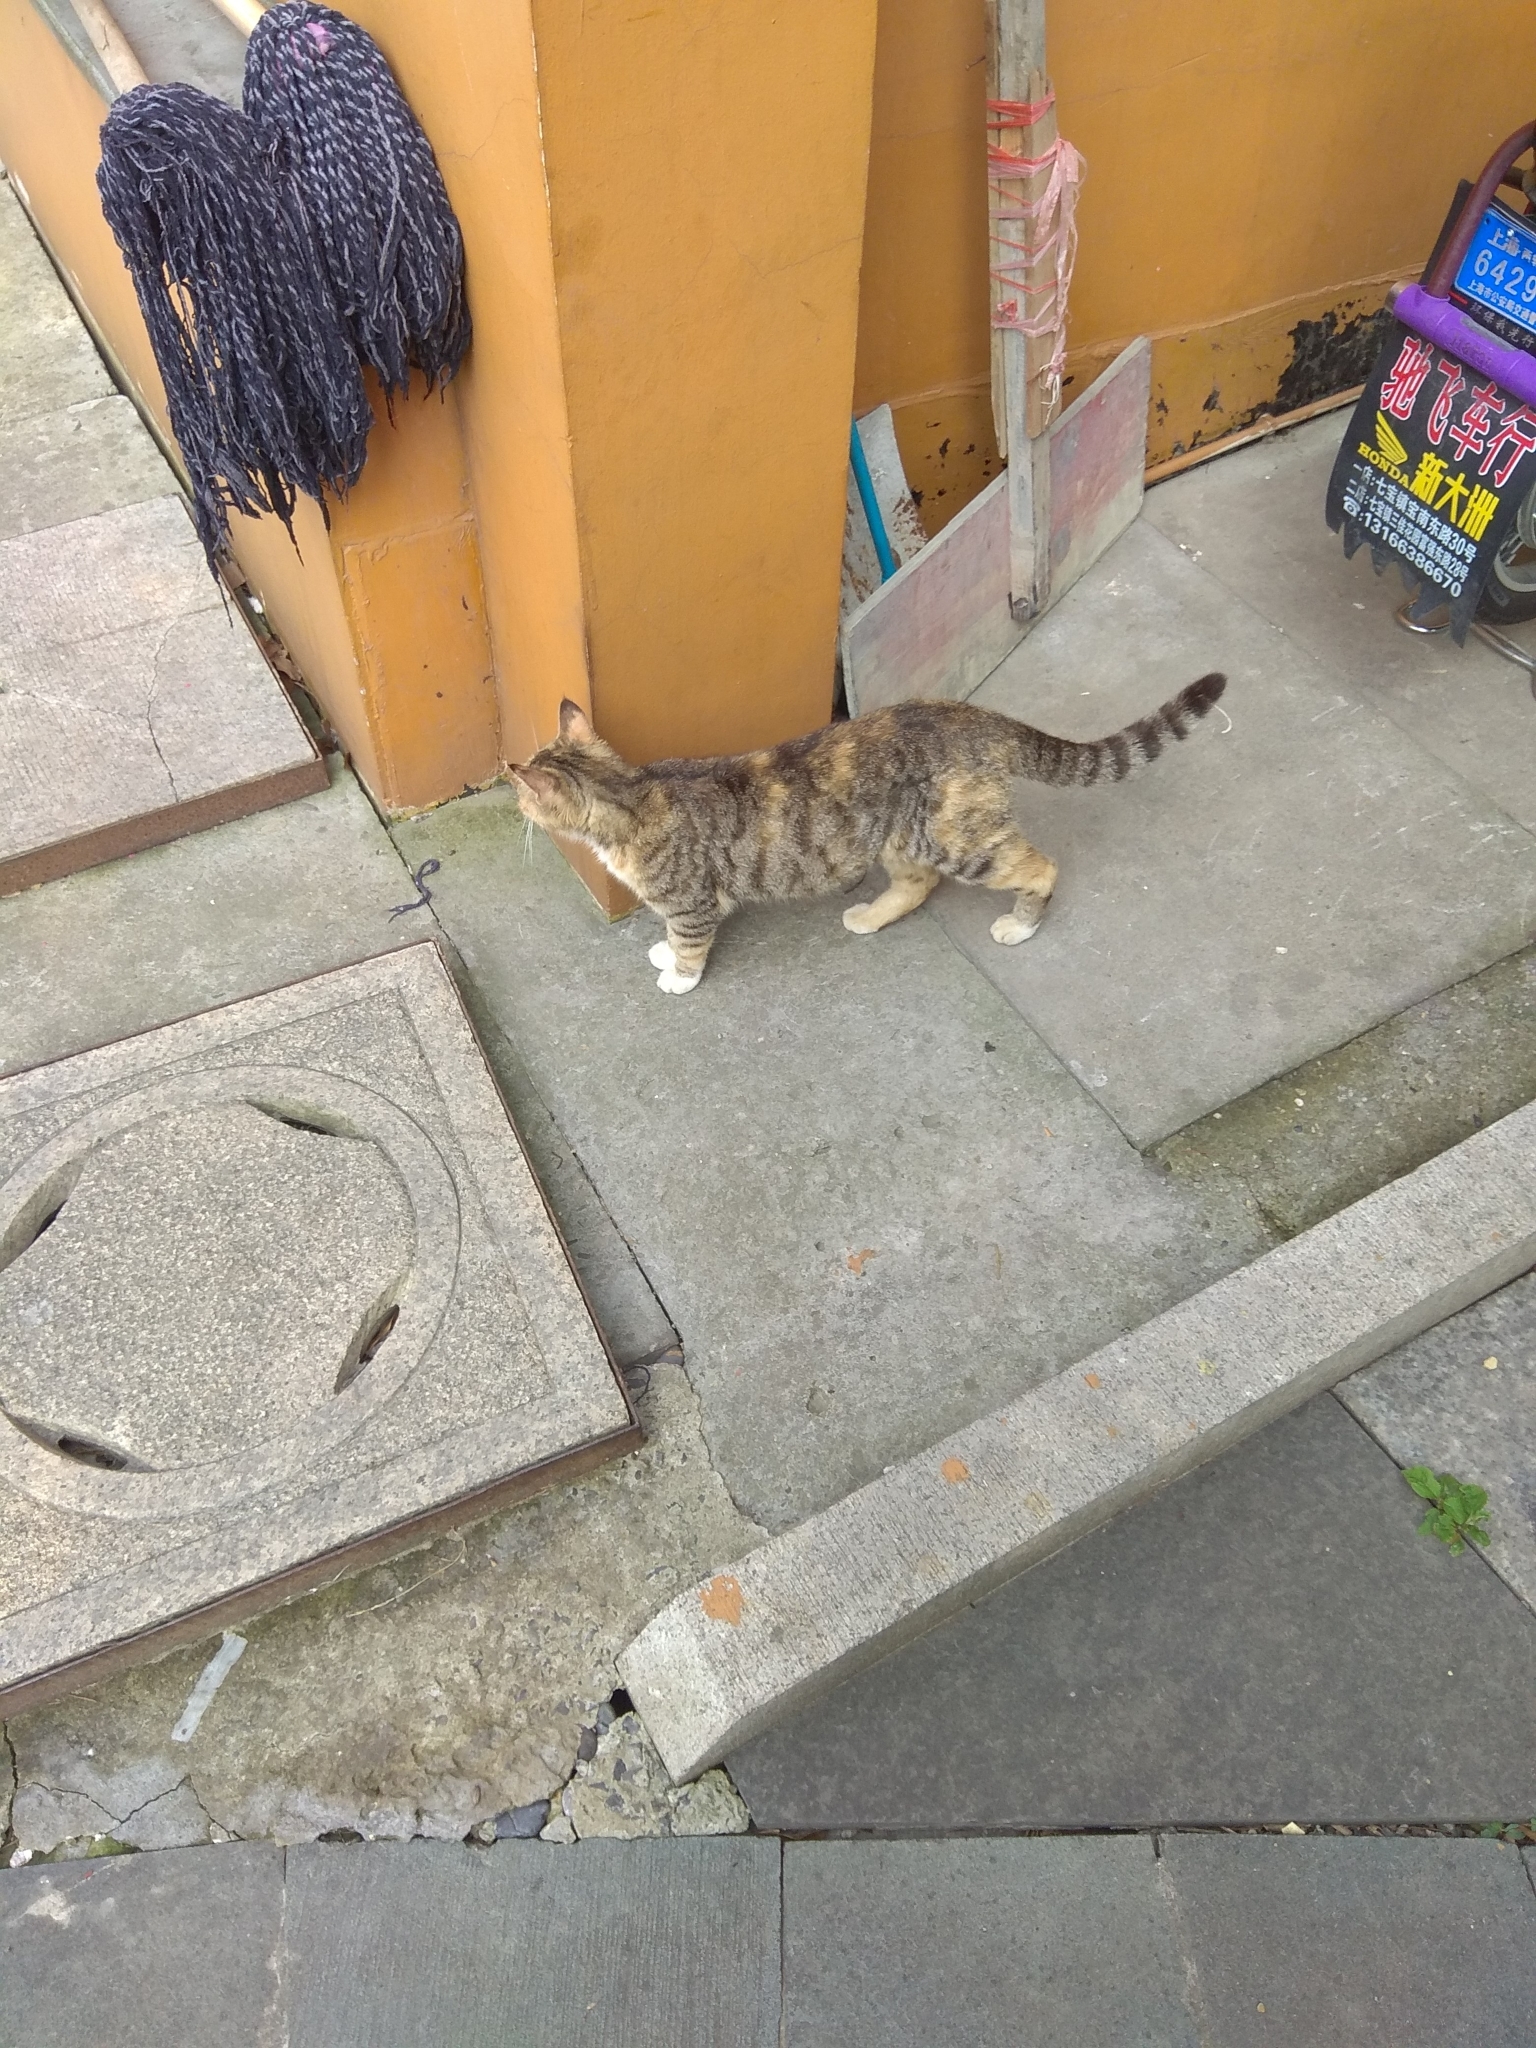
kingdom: Animalia
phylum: Chordata
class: Mammalia
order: Carnivora
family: Felidae
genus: Felis
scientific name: Felis catus
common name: Domestic cat
